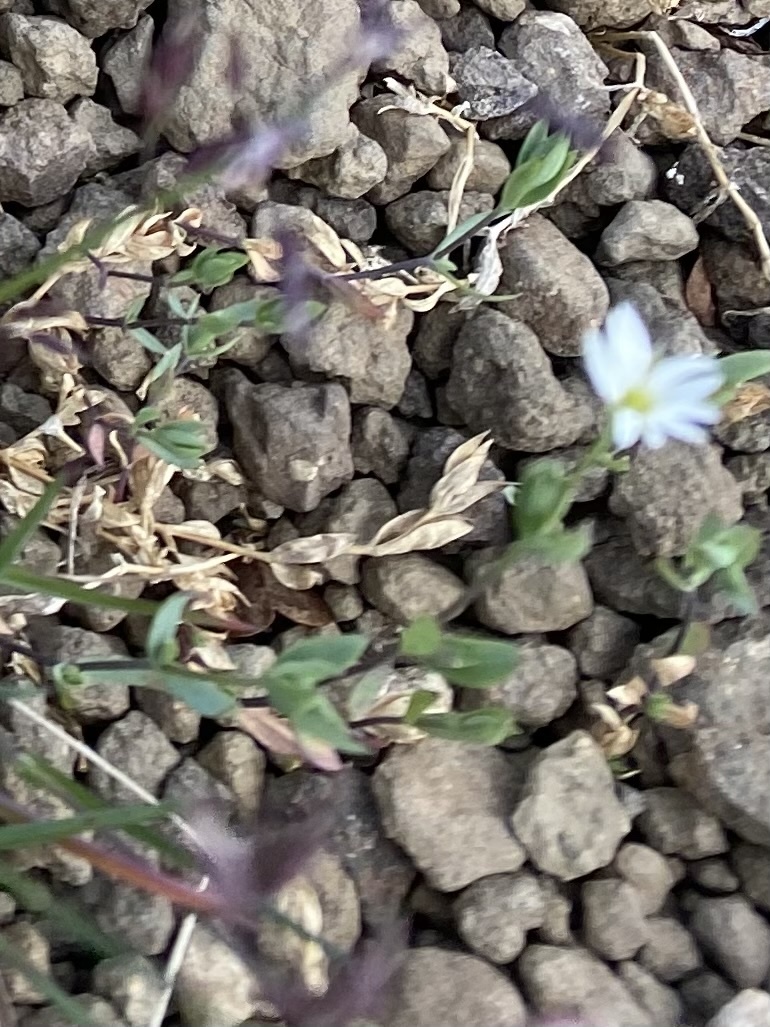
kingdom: Plantae
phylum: Tracheophyta
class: Magnoliopsida
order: Caryophyllales
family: Caryophyllaceae
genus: Stellaria
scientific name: Stellaria longipes
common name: Goldie's starwort
